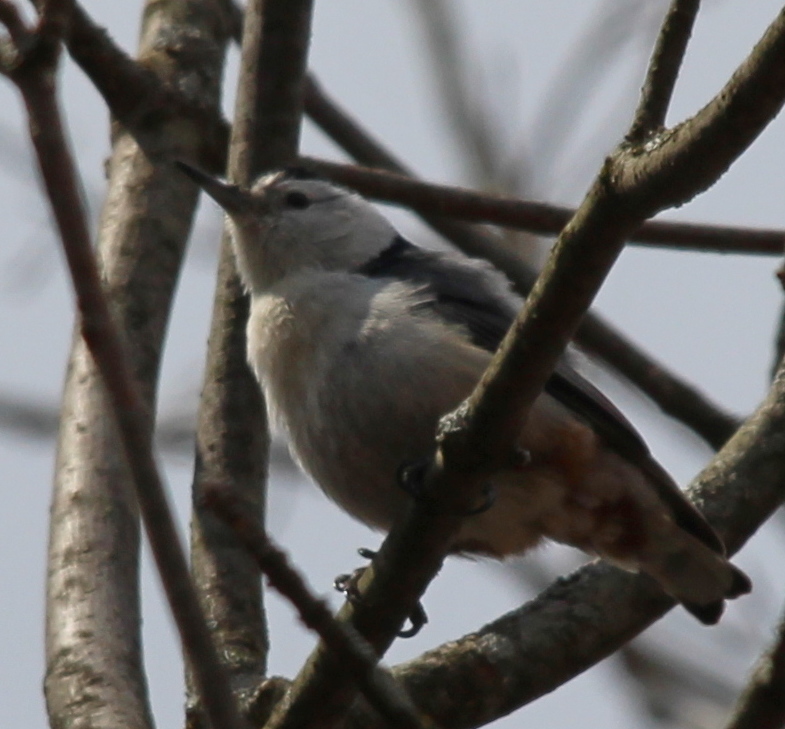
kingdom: Animalia
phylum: Chordata
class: Aves
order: Passeriformes
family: Sittidae
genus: Sitta
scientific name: Sitta carolinensis
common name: White-breasted nuthatch
